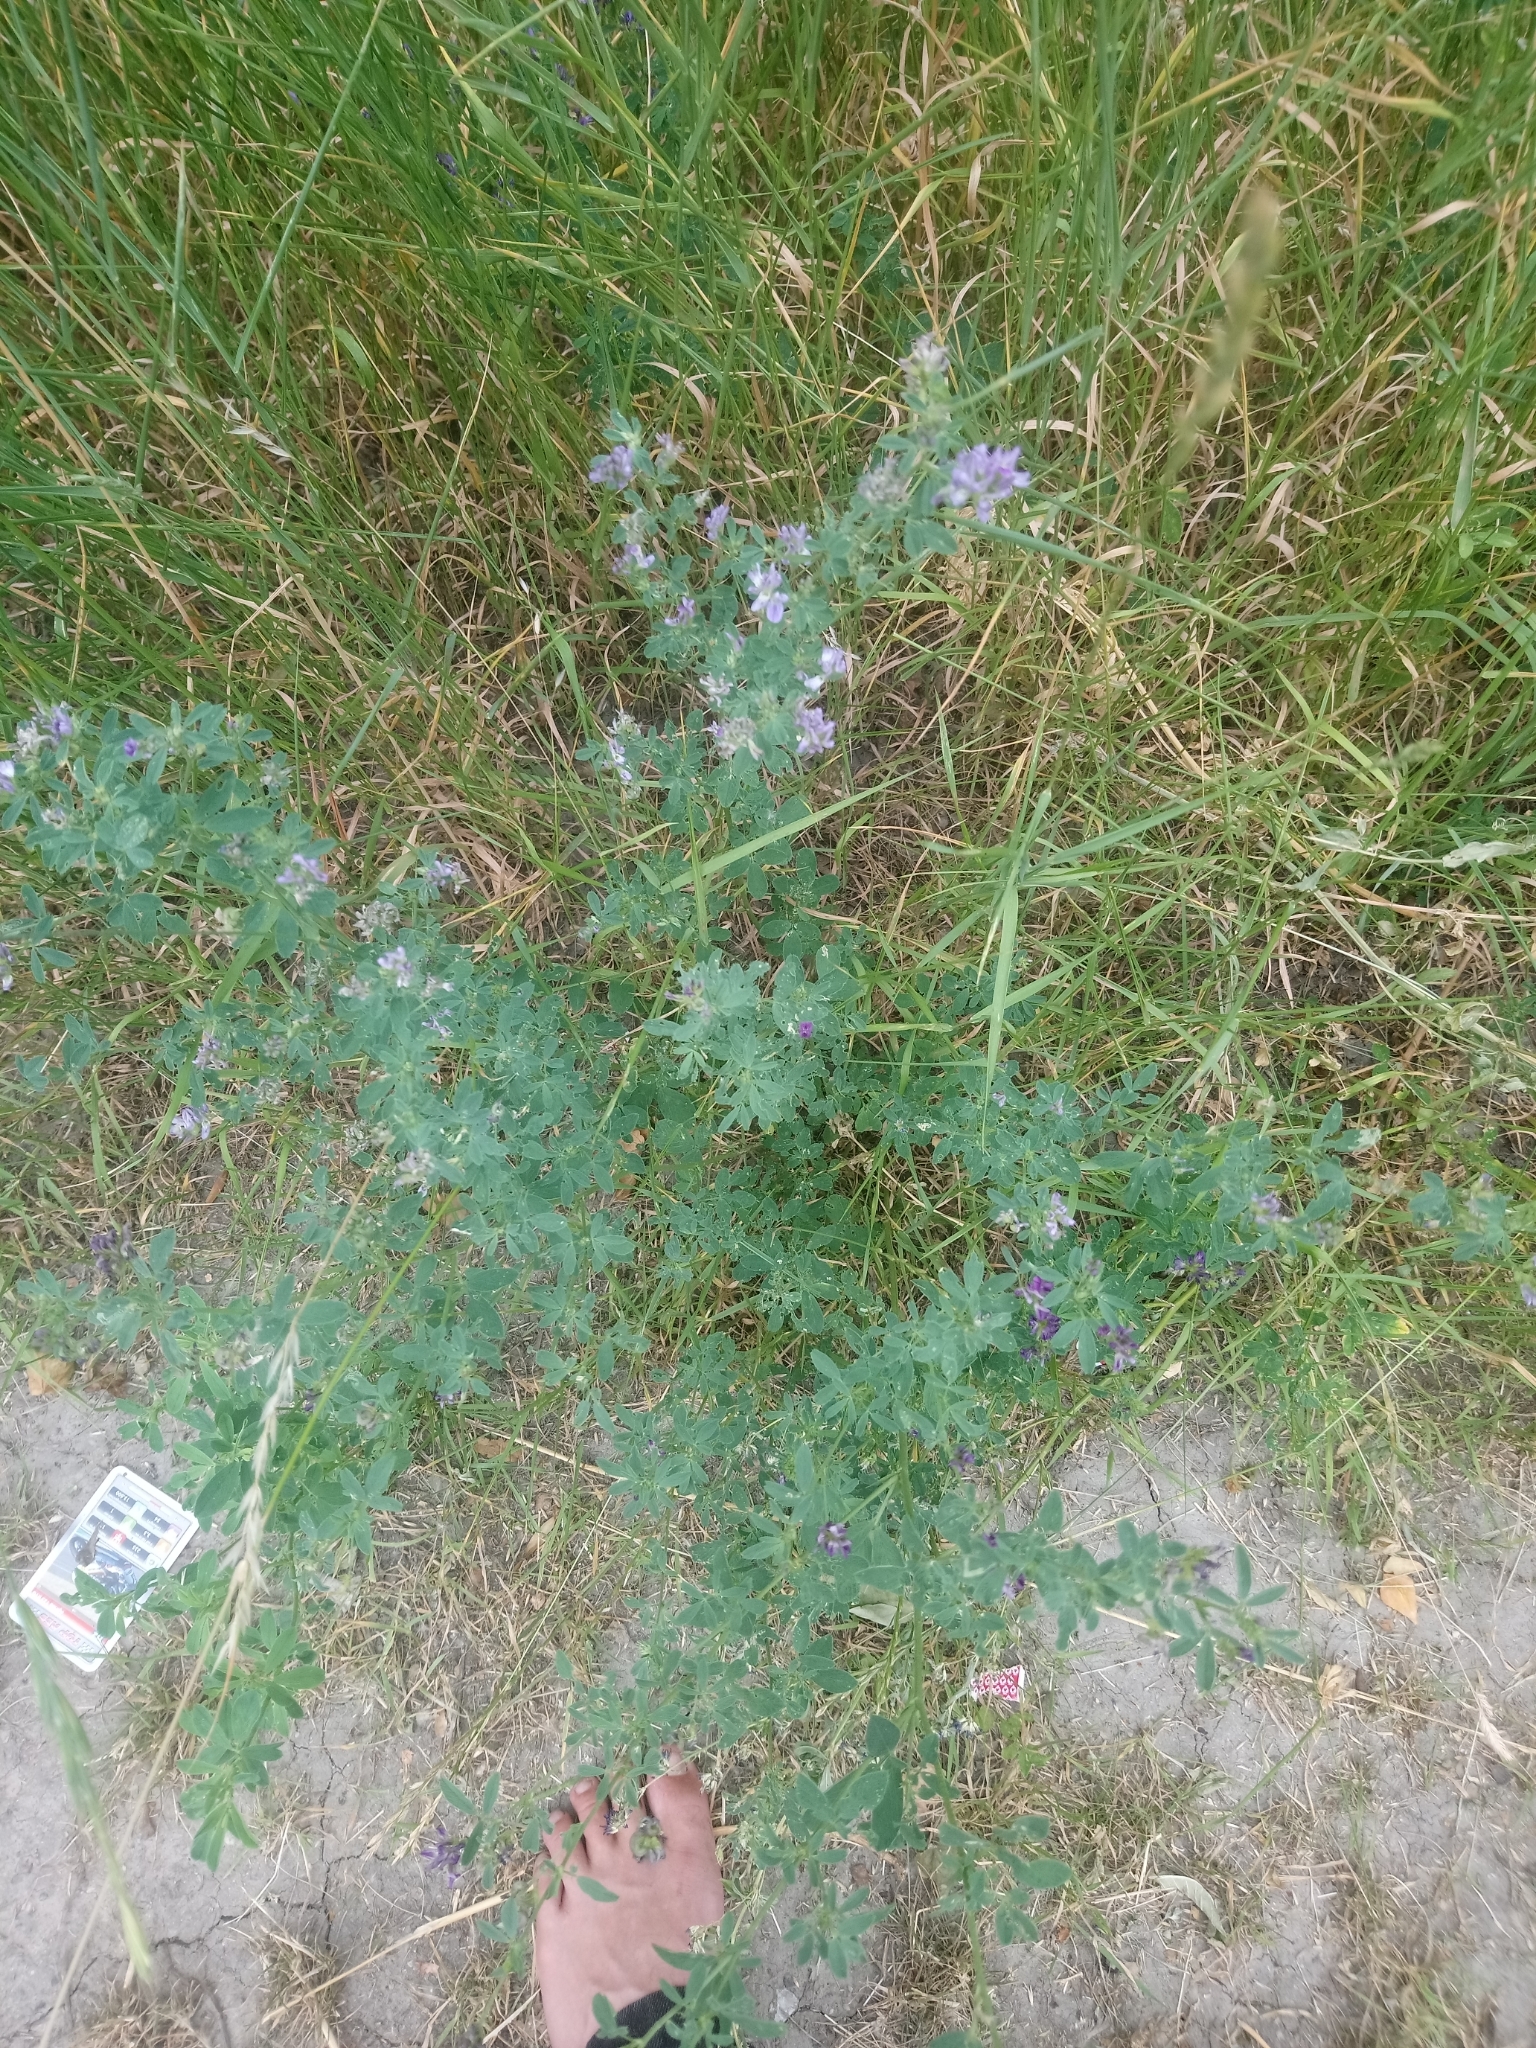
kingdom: Plantae
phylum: Tracheophyta
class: Magnoliopsida
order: Fabales
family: Fabaceae
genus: Medicago
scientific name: Medicago sativa
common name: Alfalfa
